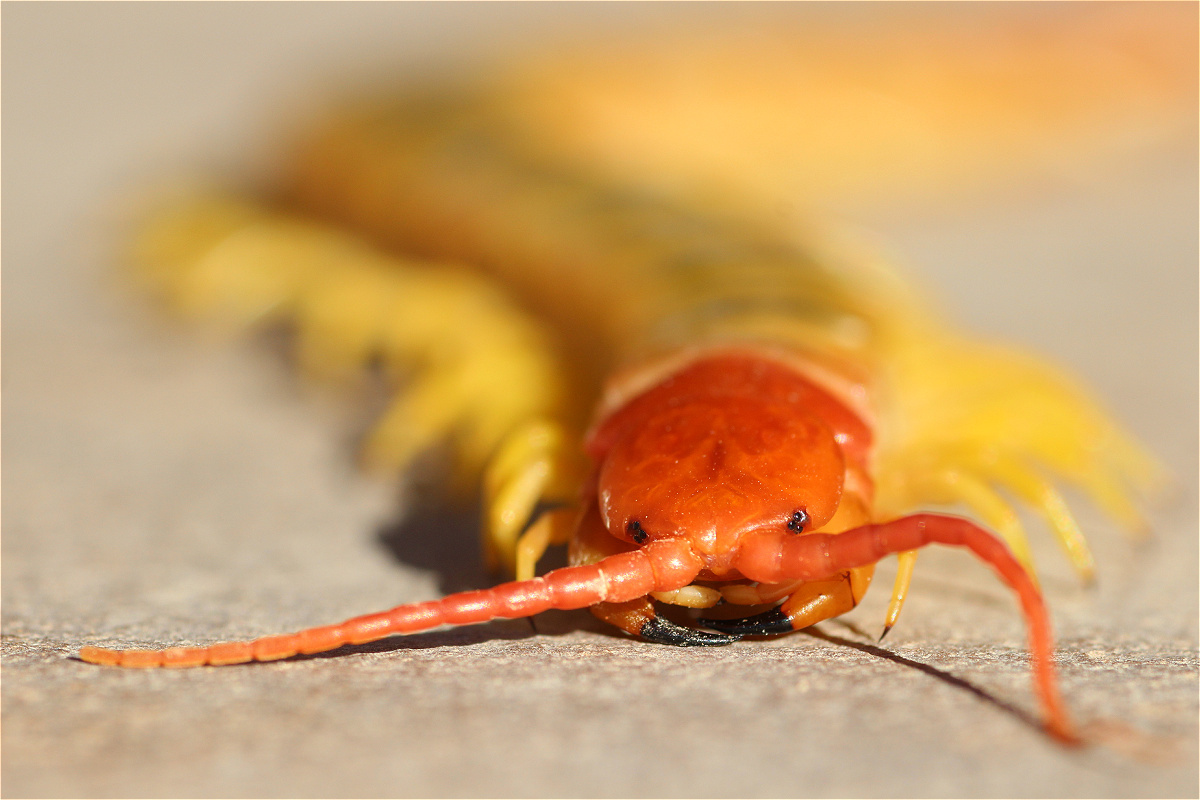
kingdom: Animalia
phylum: Arthropoda
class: Chilopoda
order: Scolopendromorpha
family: Scolopendridae
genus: Scolopendra
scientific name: Scolopendra morsitans
